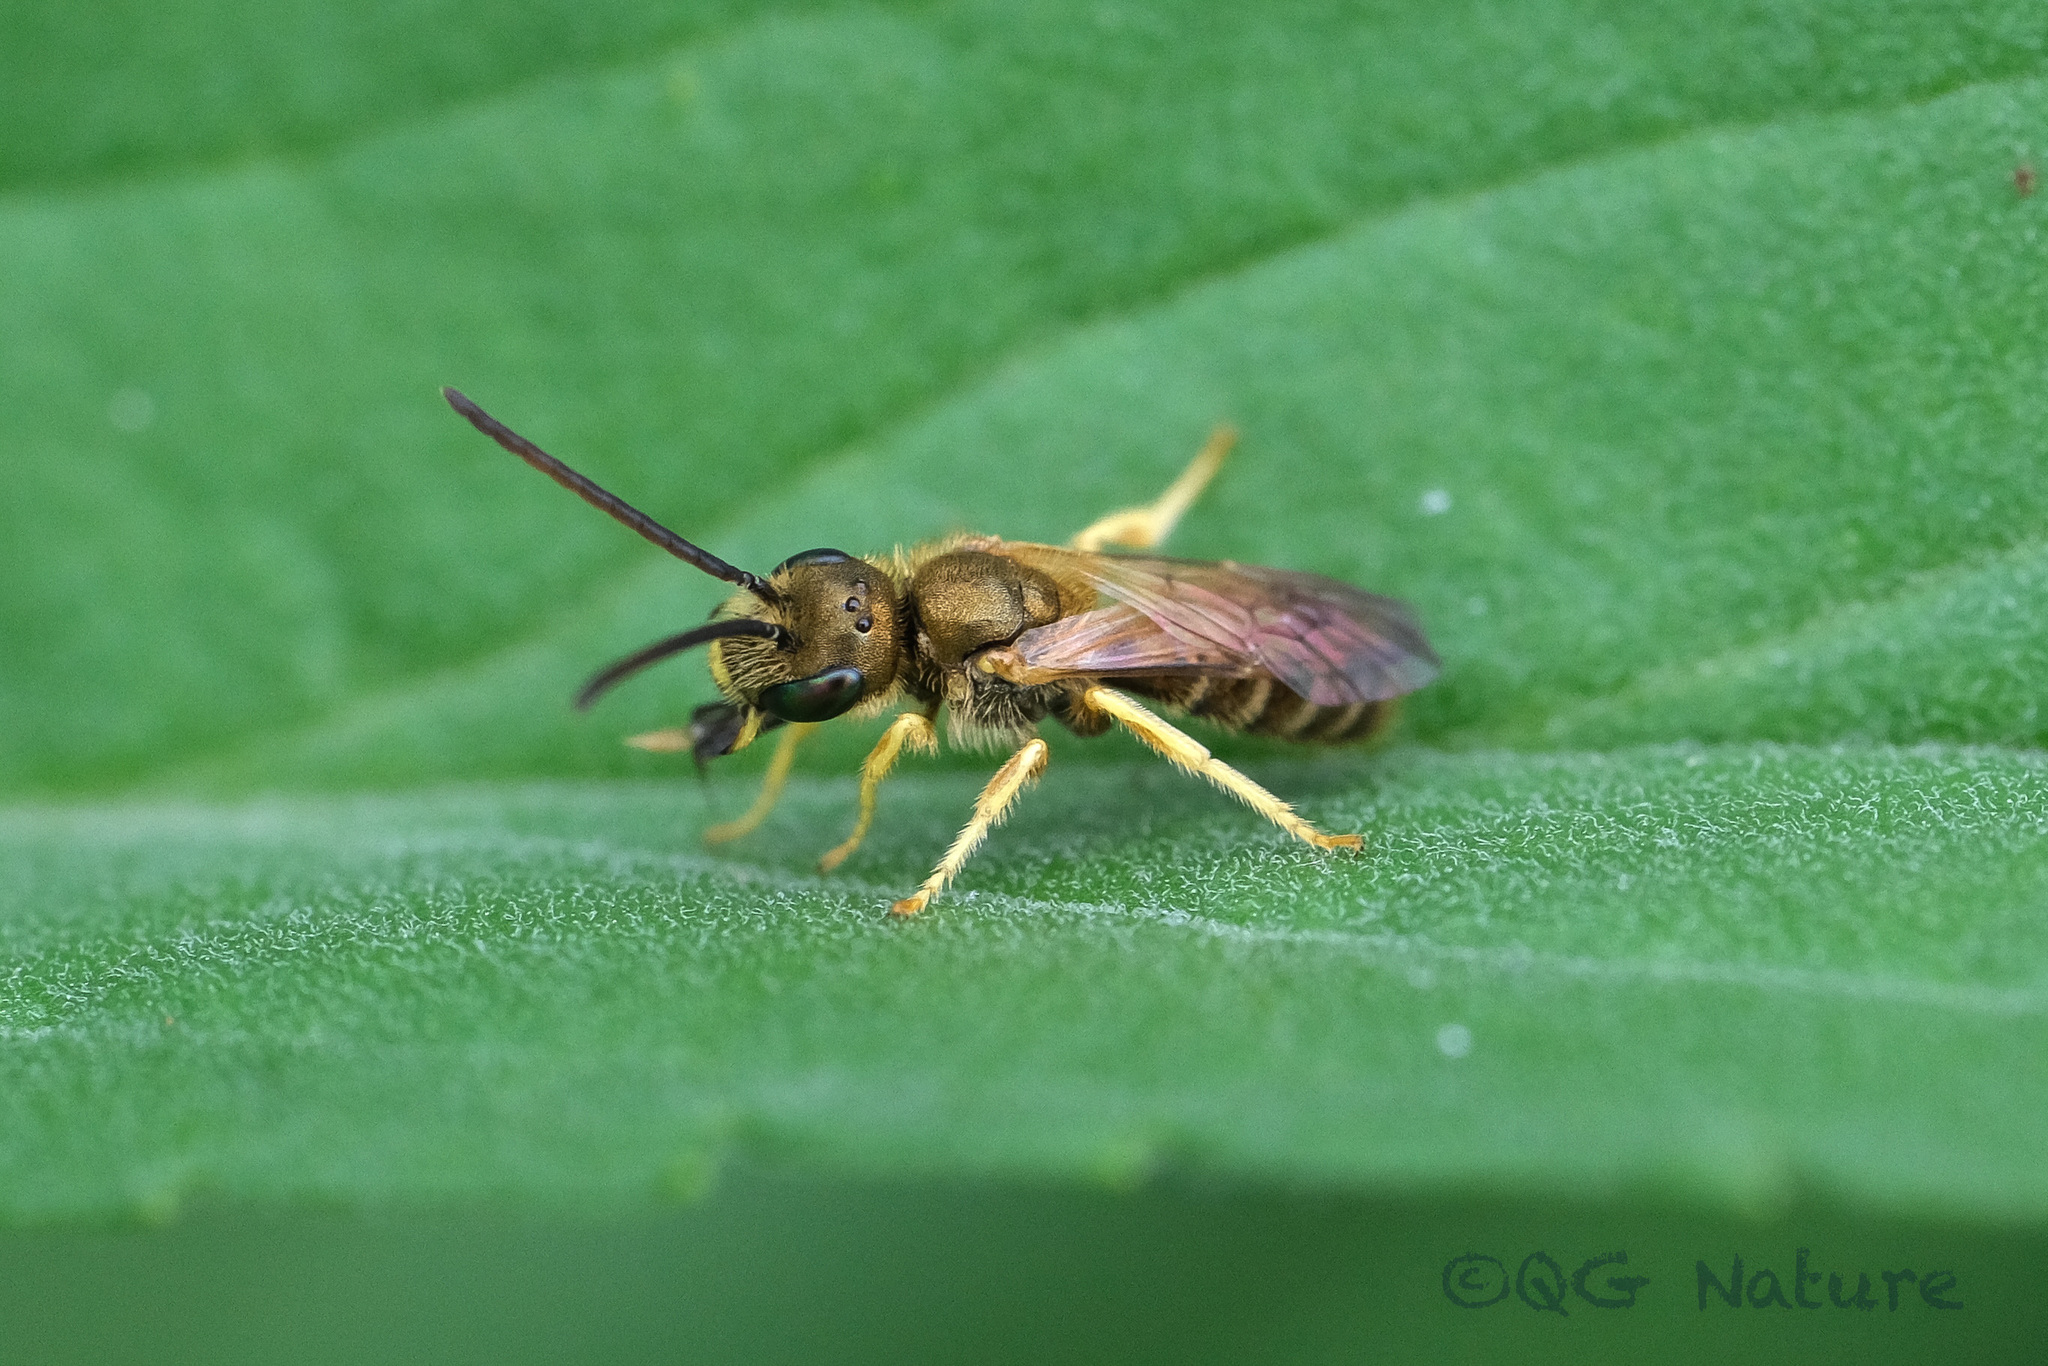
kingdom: Animalia
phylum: Arthropoda
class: Insecta
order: Hymenoptera
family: Halictidae
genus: Halictus
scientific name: Halictus aerarius
